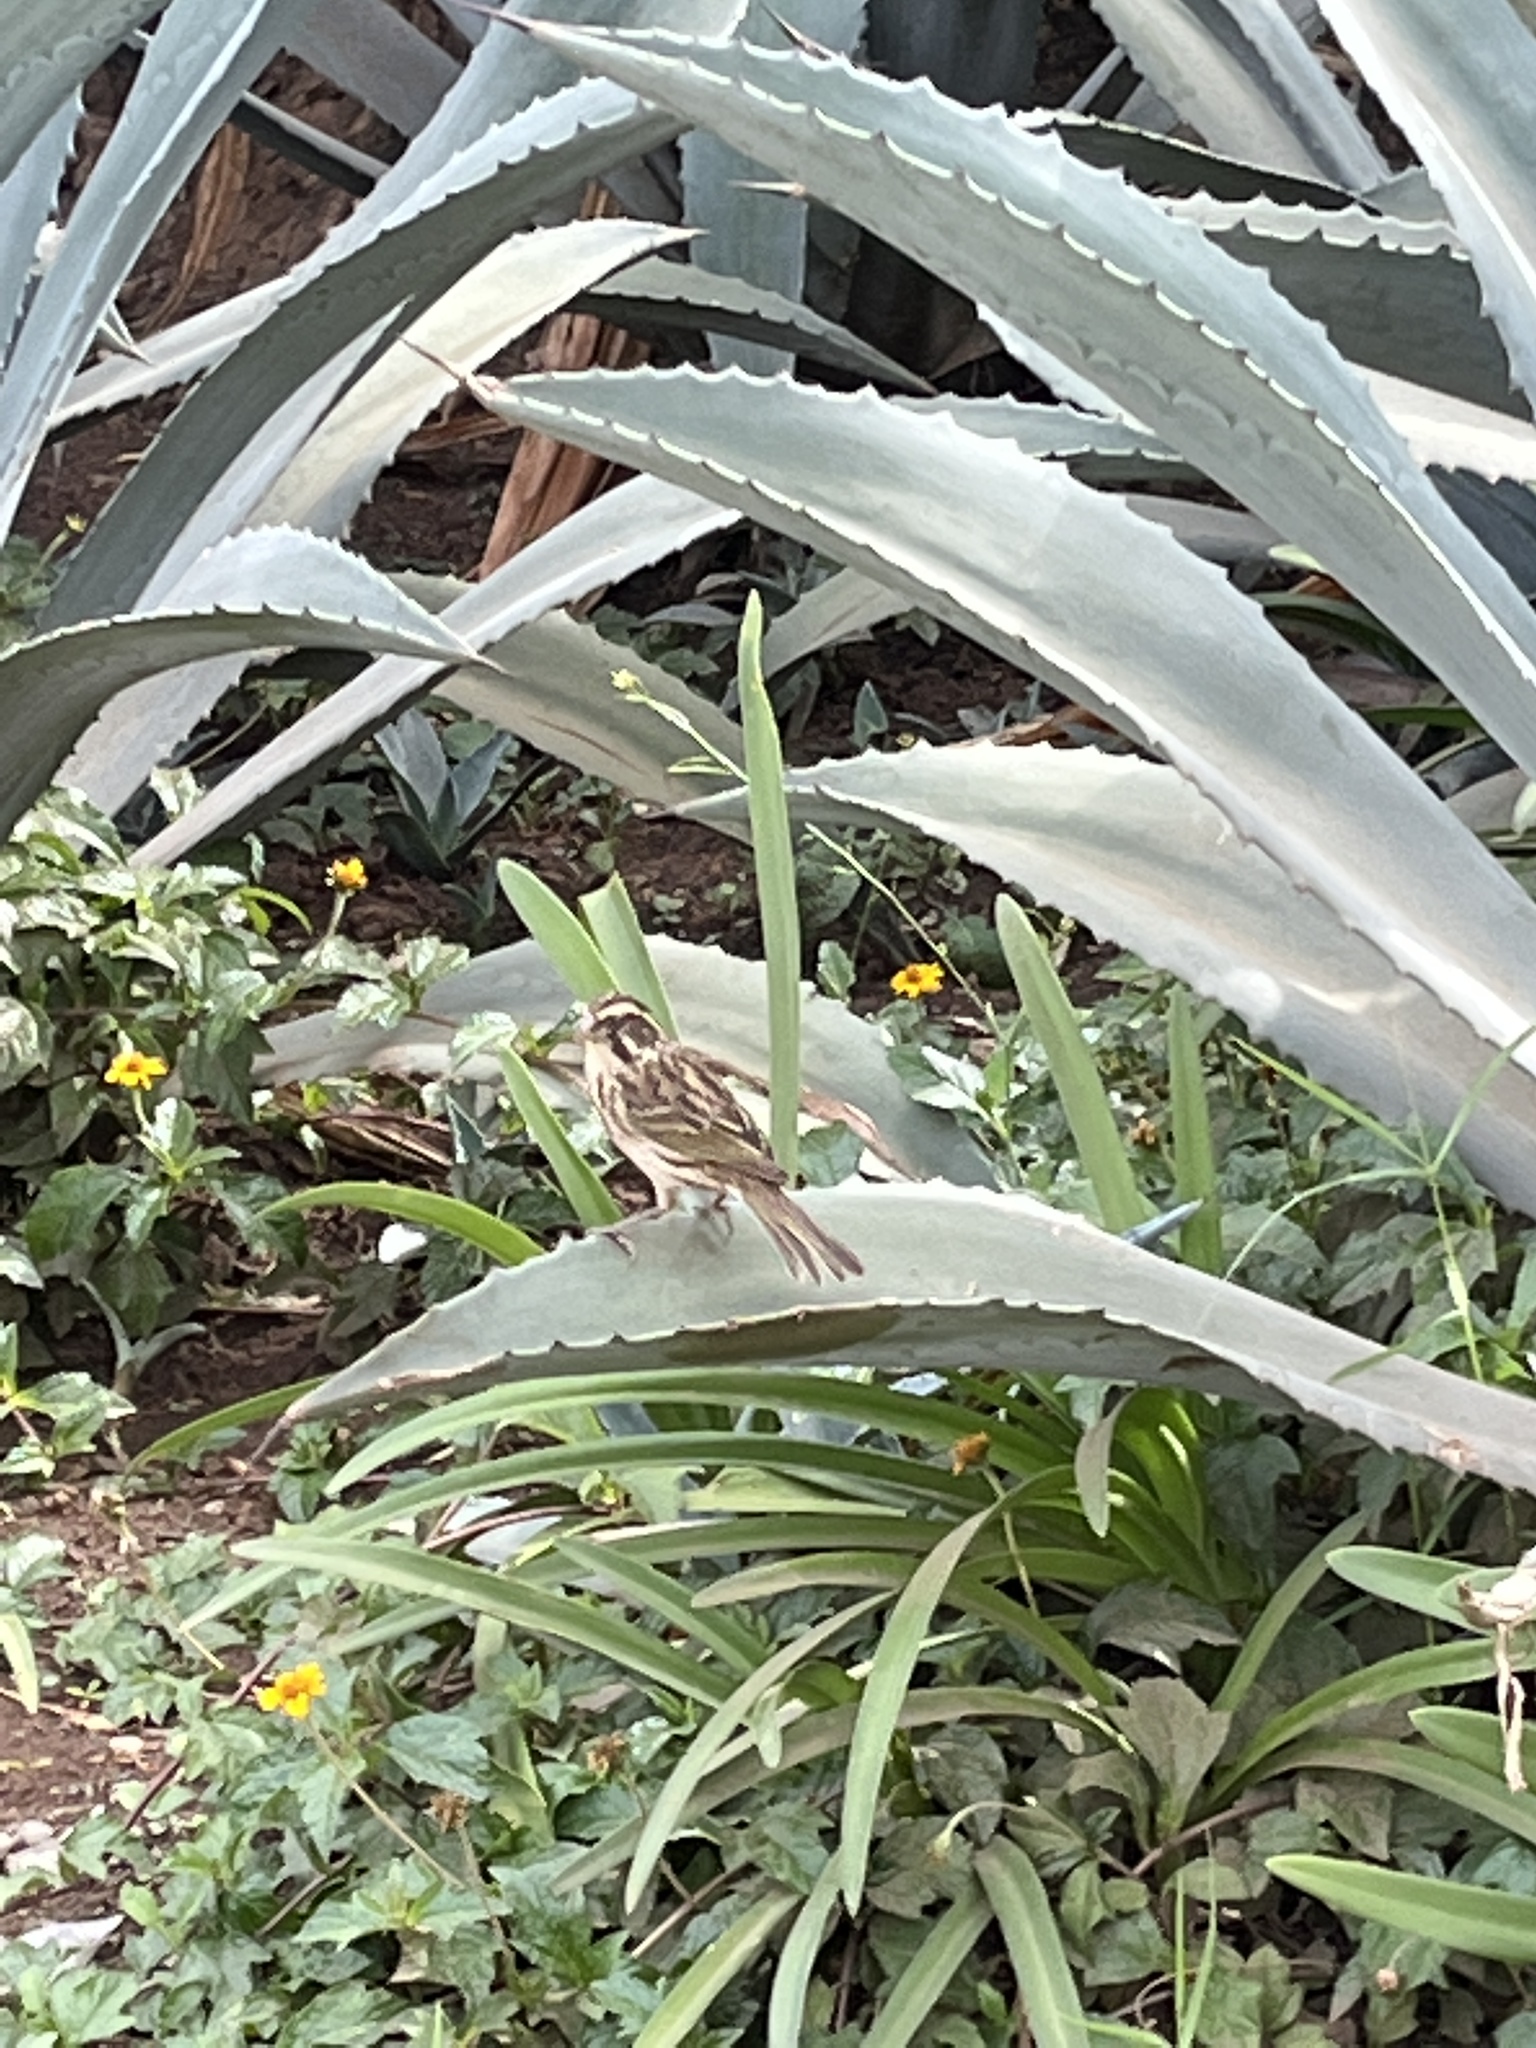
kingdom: Animalia
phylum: Chordata
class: Aves
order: Passeriformes
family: Fringillidae
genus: Crithagra
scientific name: Crithagra striolata
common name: Streaky seedeater
